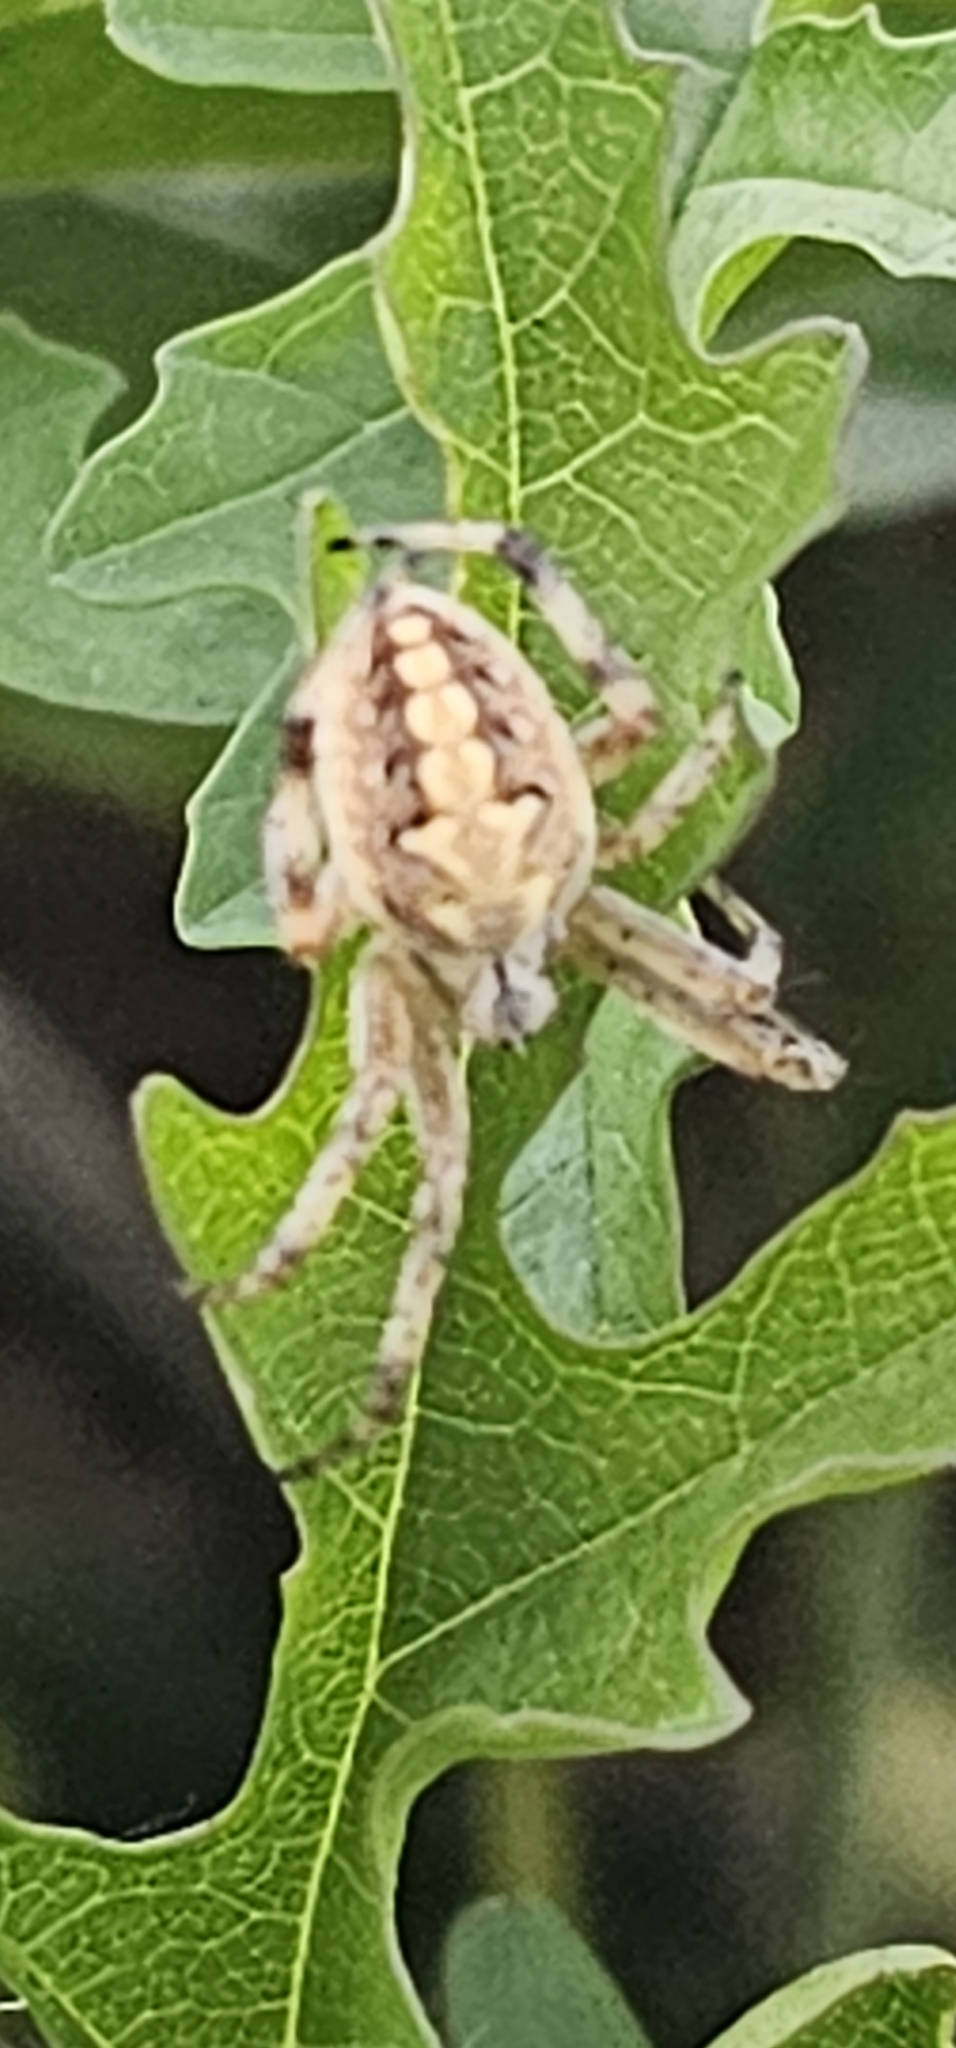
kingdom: Animalia
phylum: Arthropoda
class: Arachnida
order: Araneae
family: Araneidae
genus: Neoscona
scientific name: Neoscona oaxacensis
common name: Orb weavers
